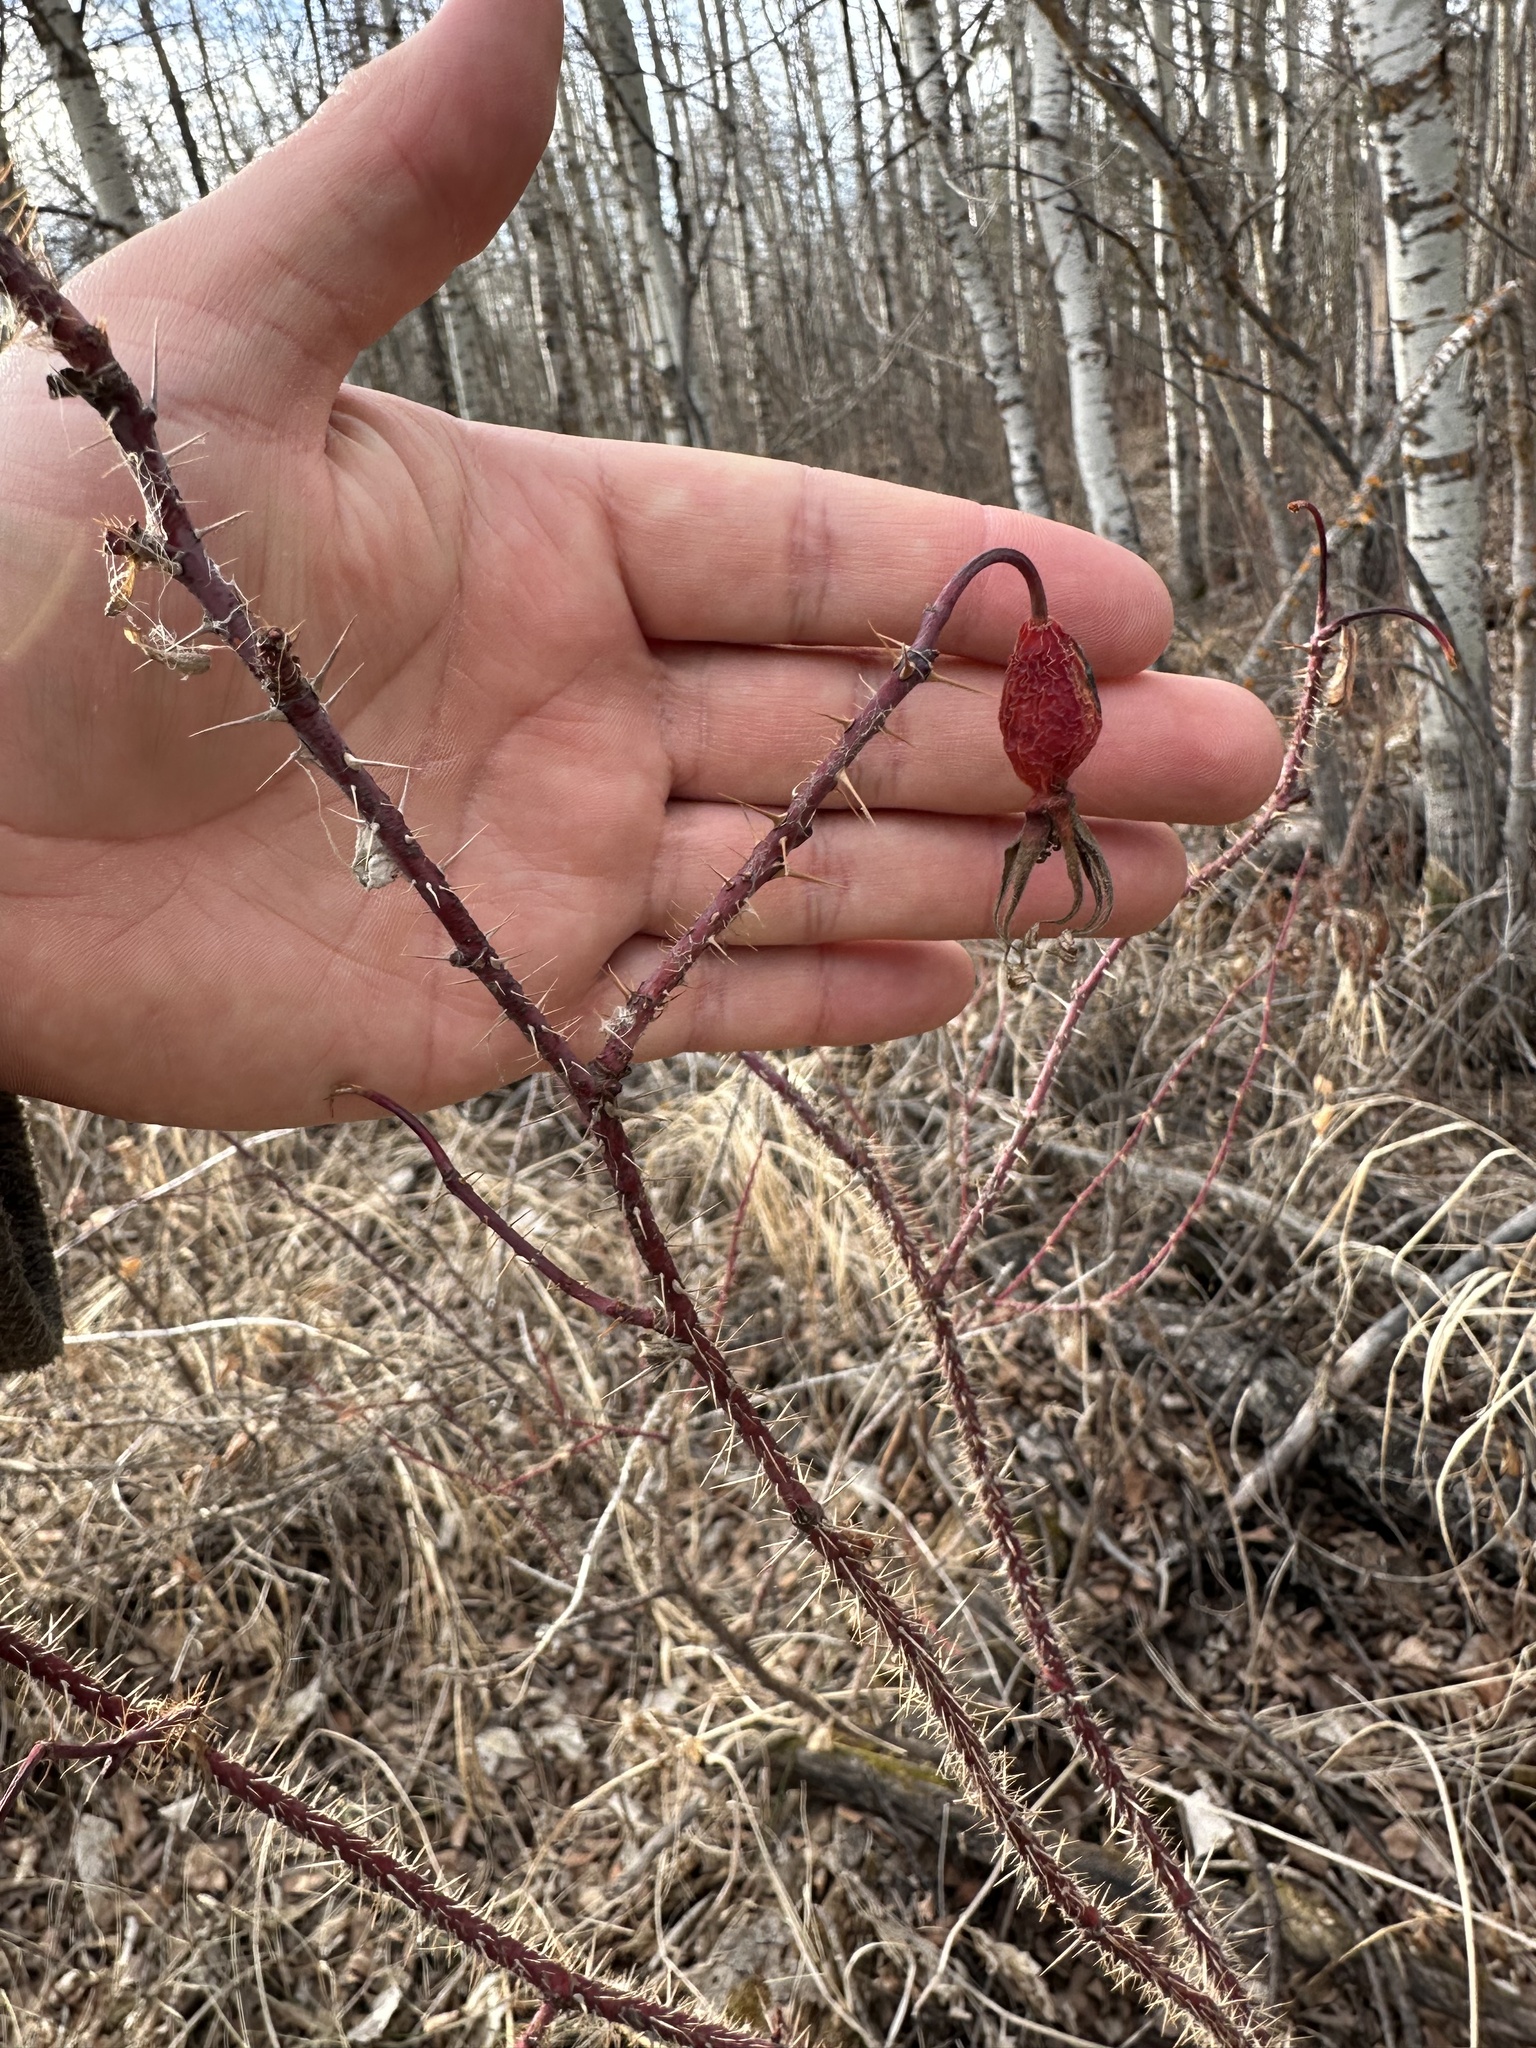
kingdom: Plantae
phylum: Tracheophyta
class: Magnoliopsida
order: Rosales
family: Rosaceae
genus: Rosa
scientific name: Rosa acicularis
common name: Prickly rose
